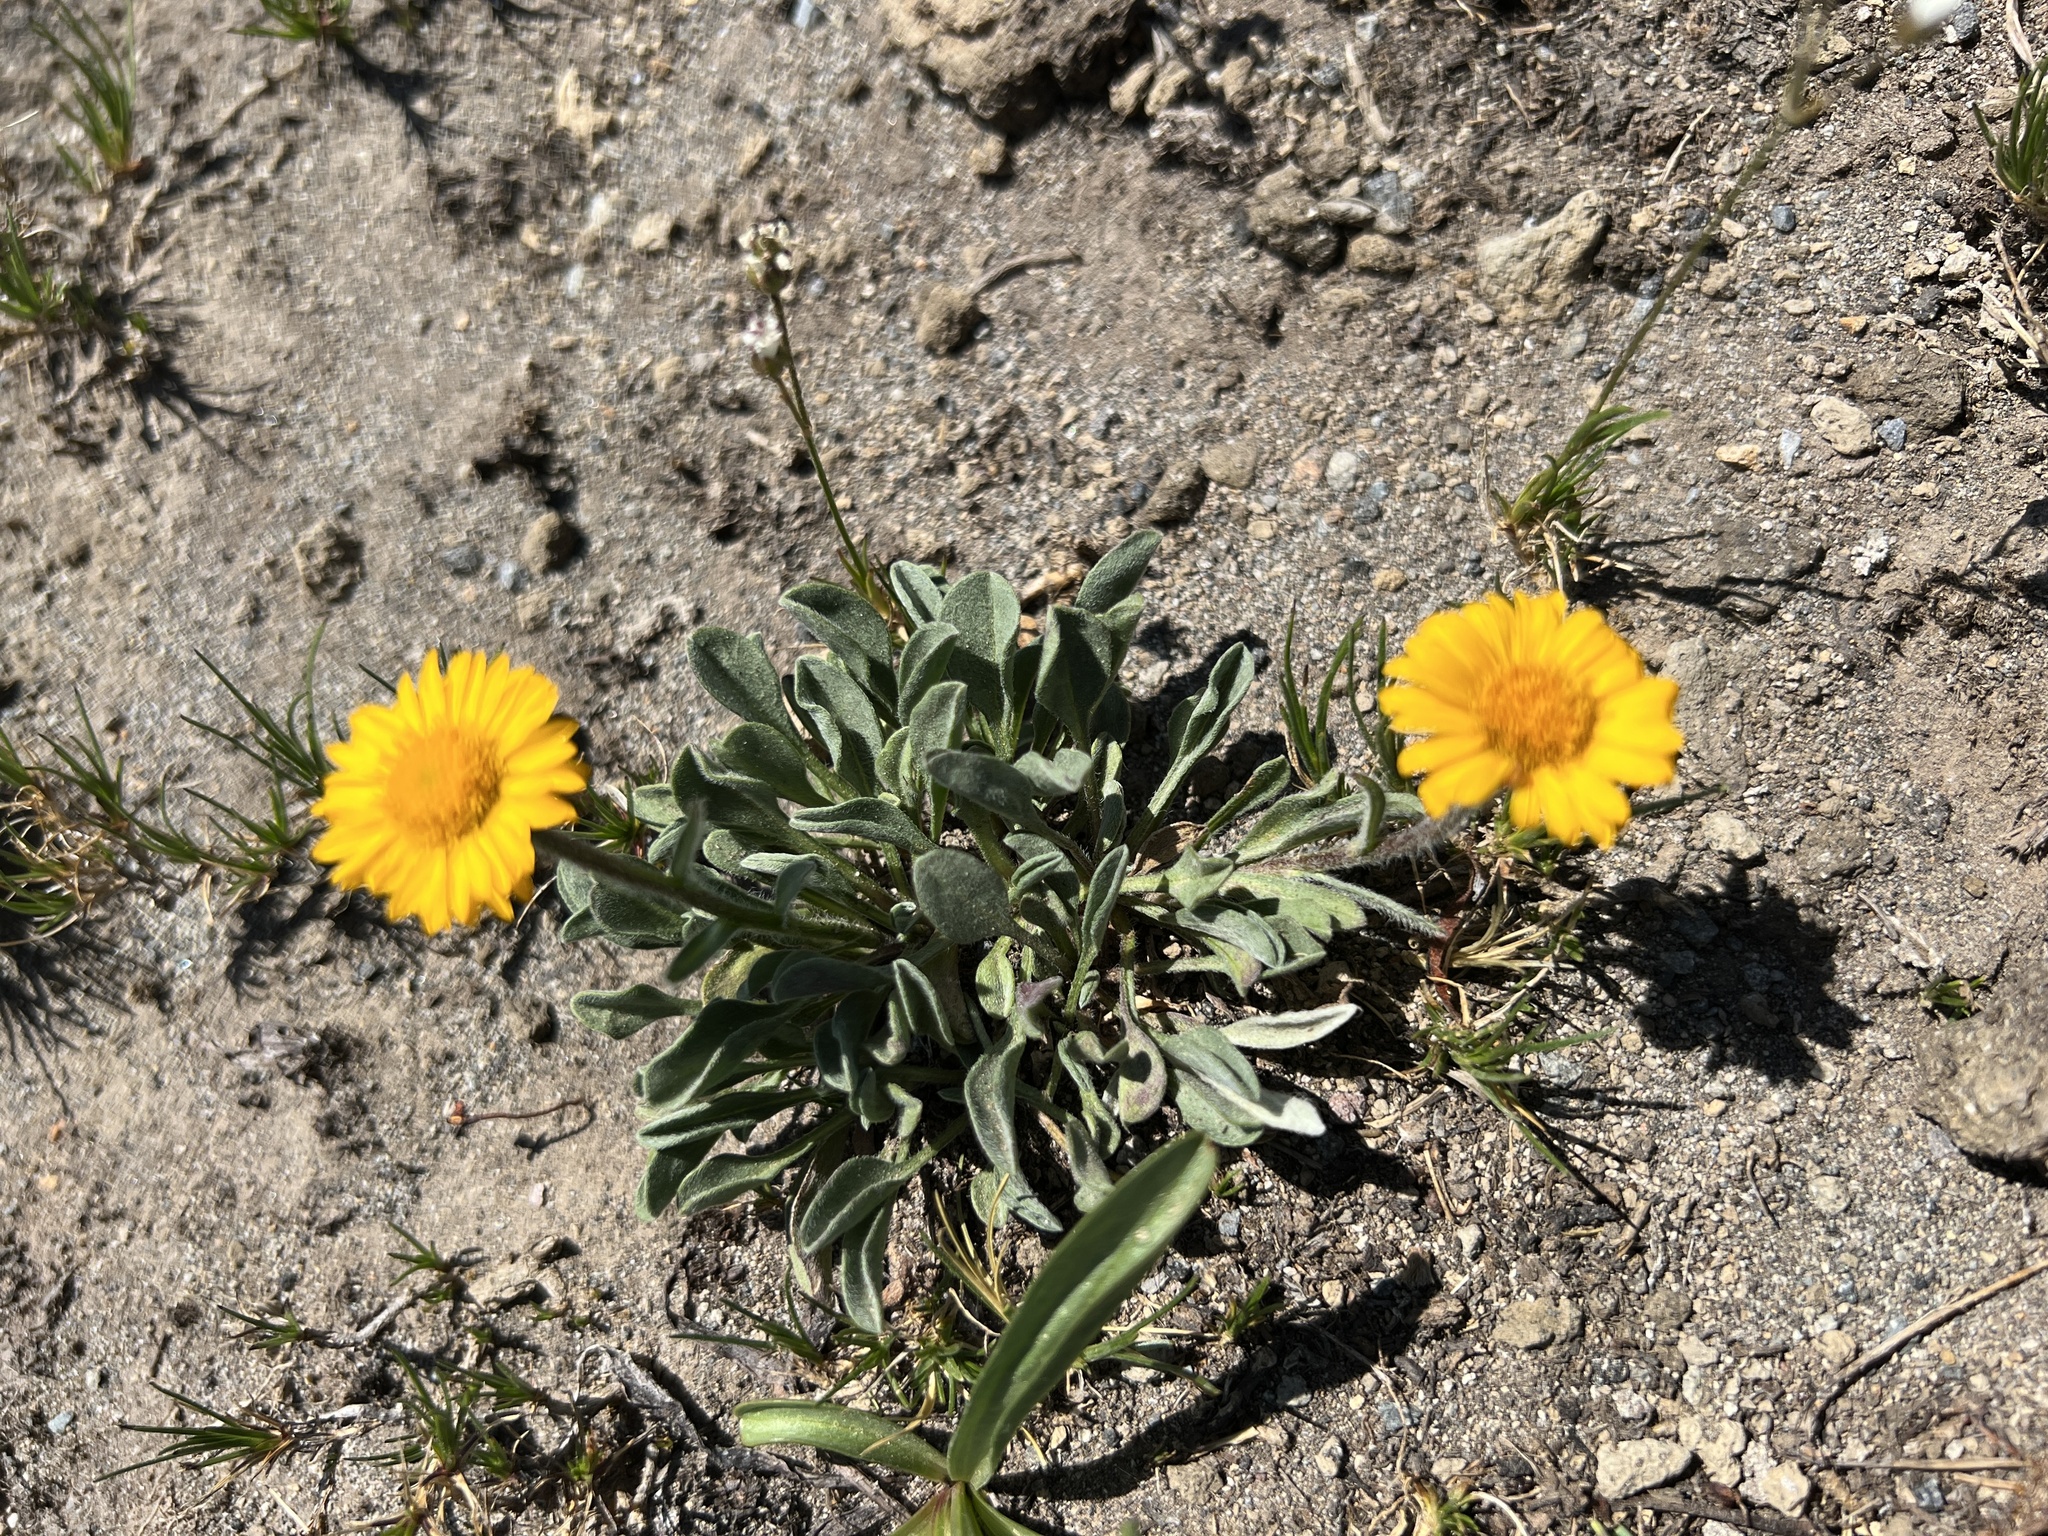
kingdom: Plantae
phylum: Tracheophyta
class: Magnoliopsida
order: Asterales
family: Asteraceae
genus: Erigeron
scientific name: Erigeron aureus
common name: Alpine yellow fleabane
